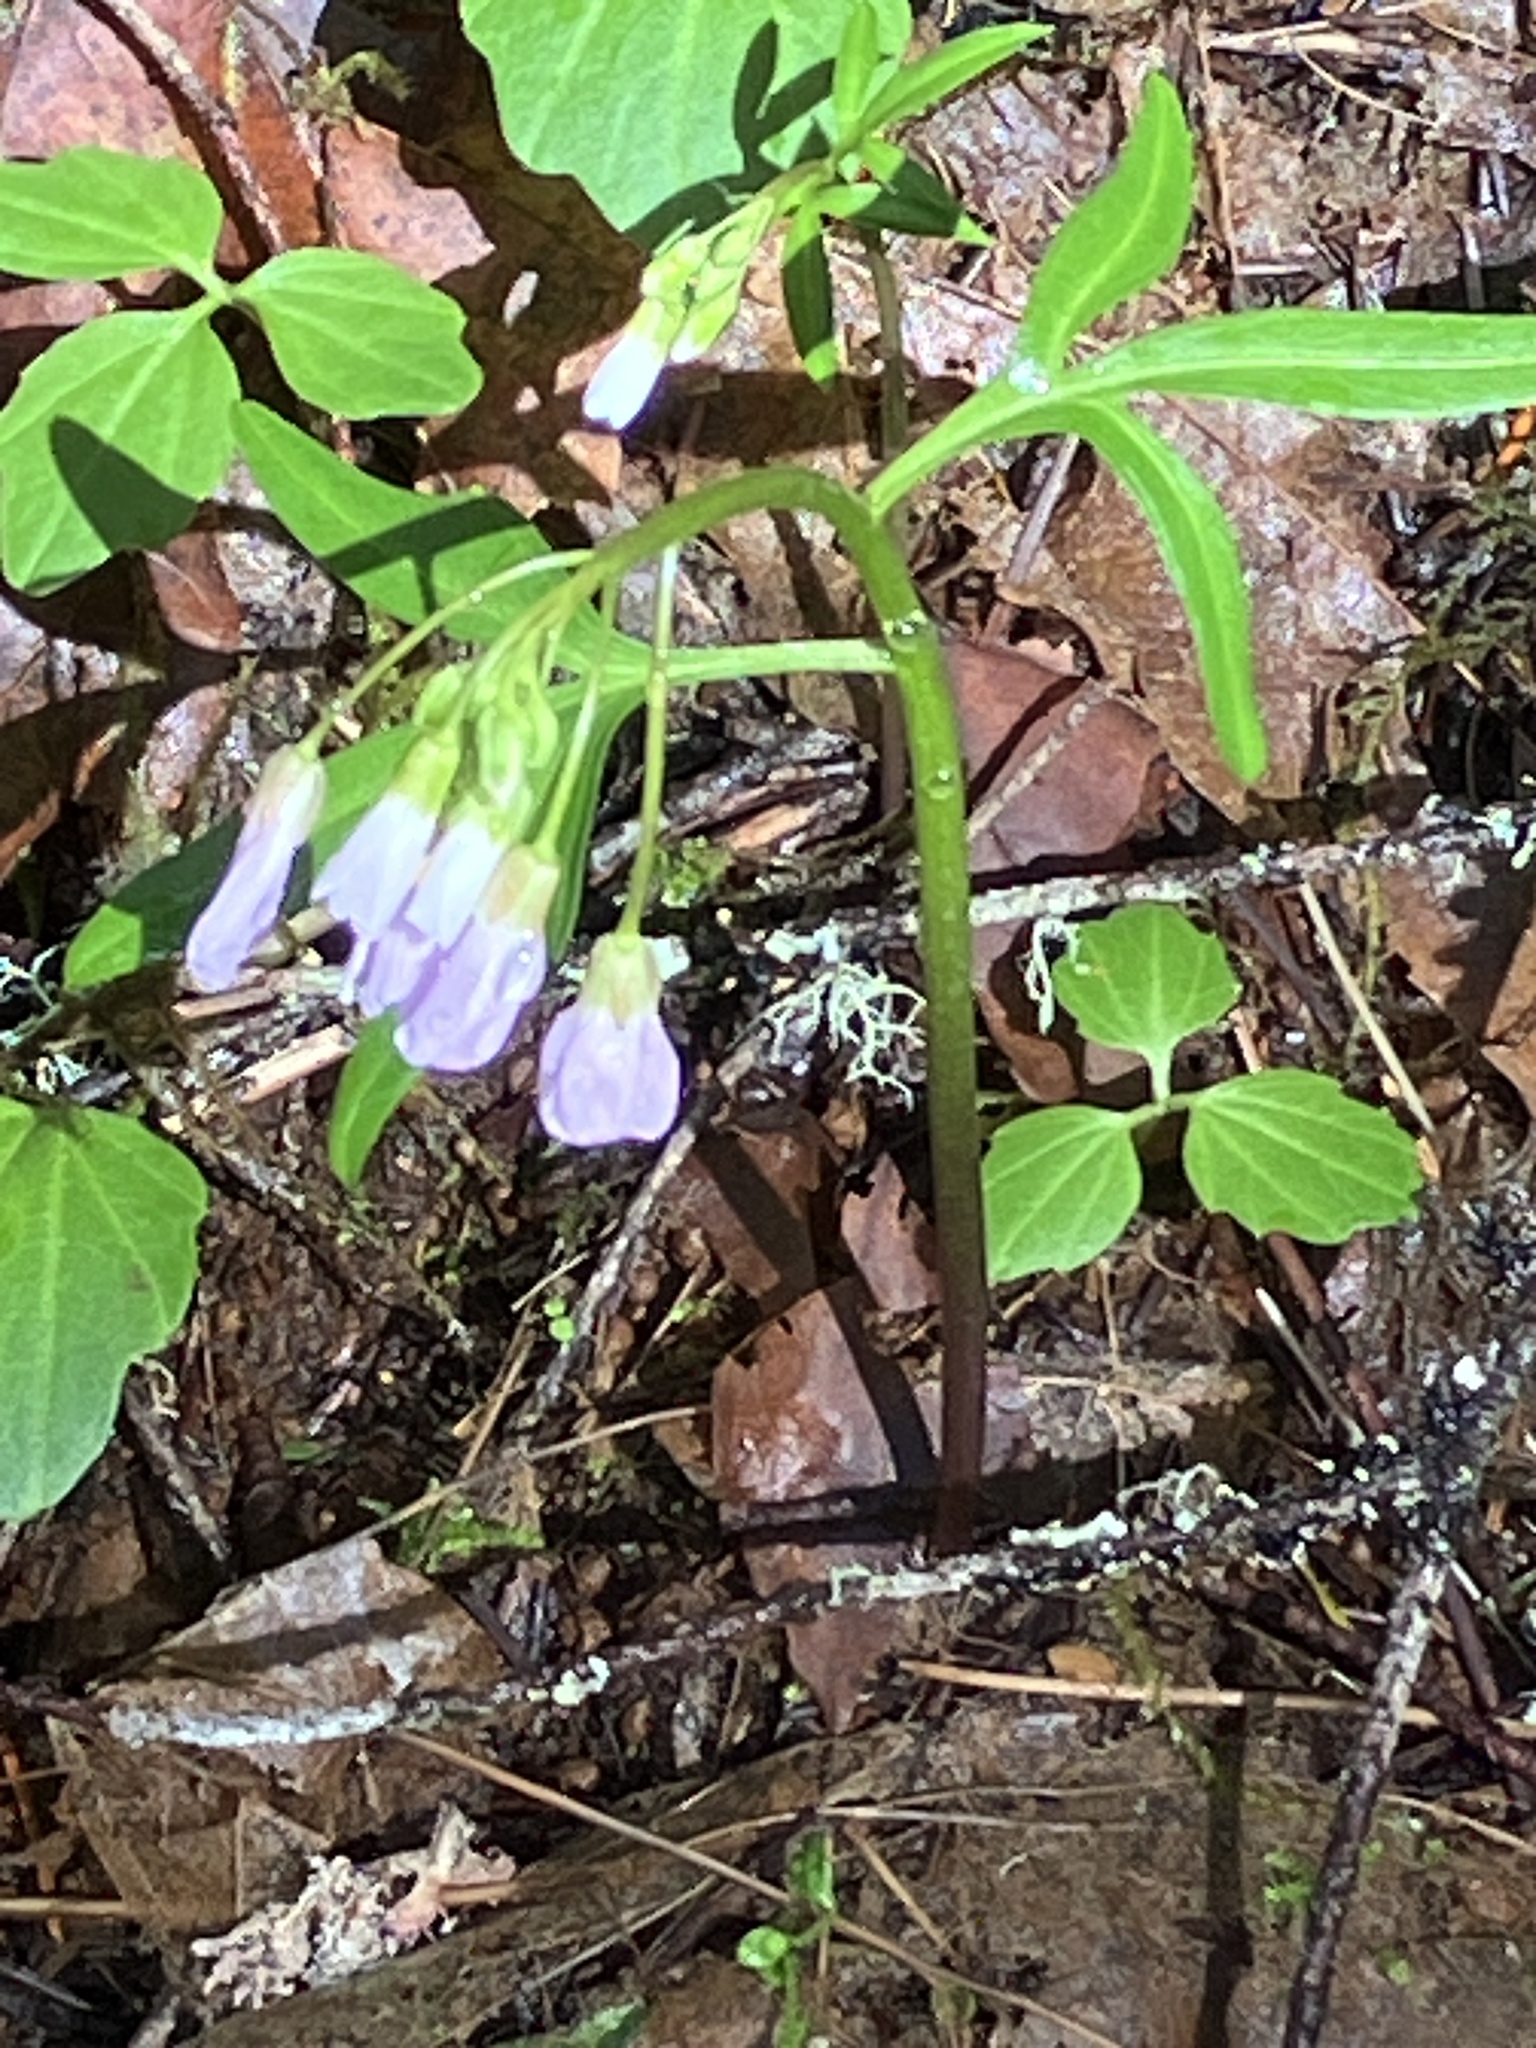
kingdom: Plantae
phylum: Tracheophyta
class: Magnoliopsida
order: Brassicales
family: Brassicaceae
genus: Cardamine
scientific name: Cardamine nuttallii
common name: Nuttall's toothwort
